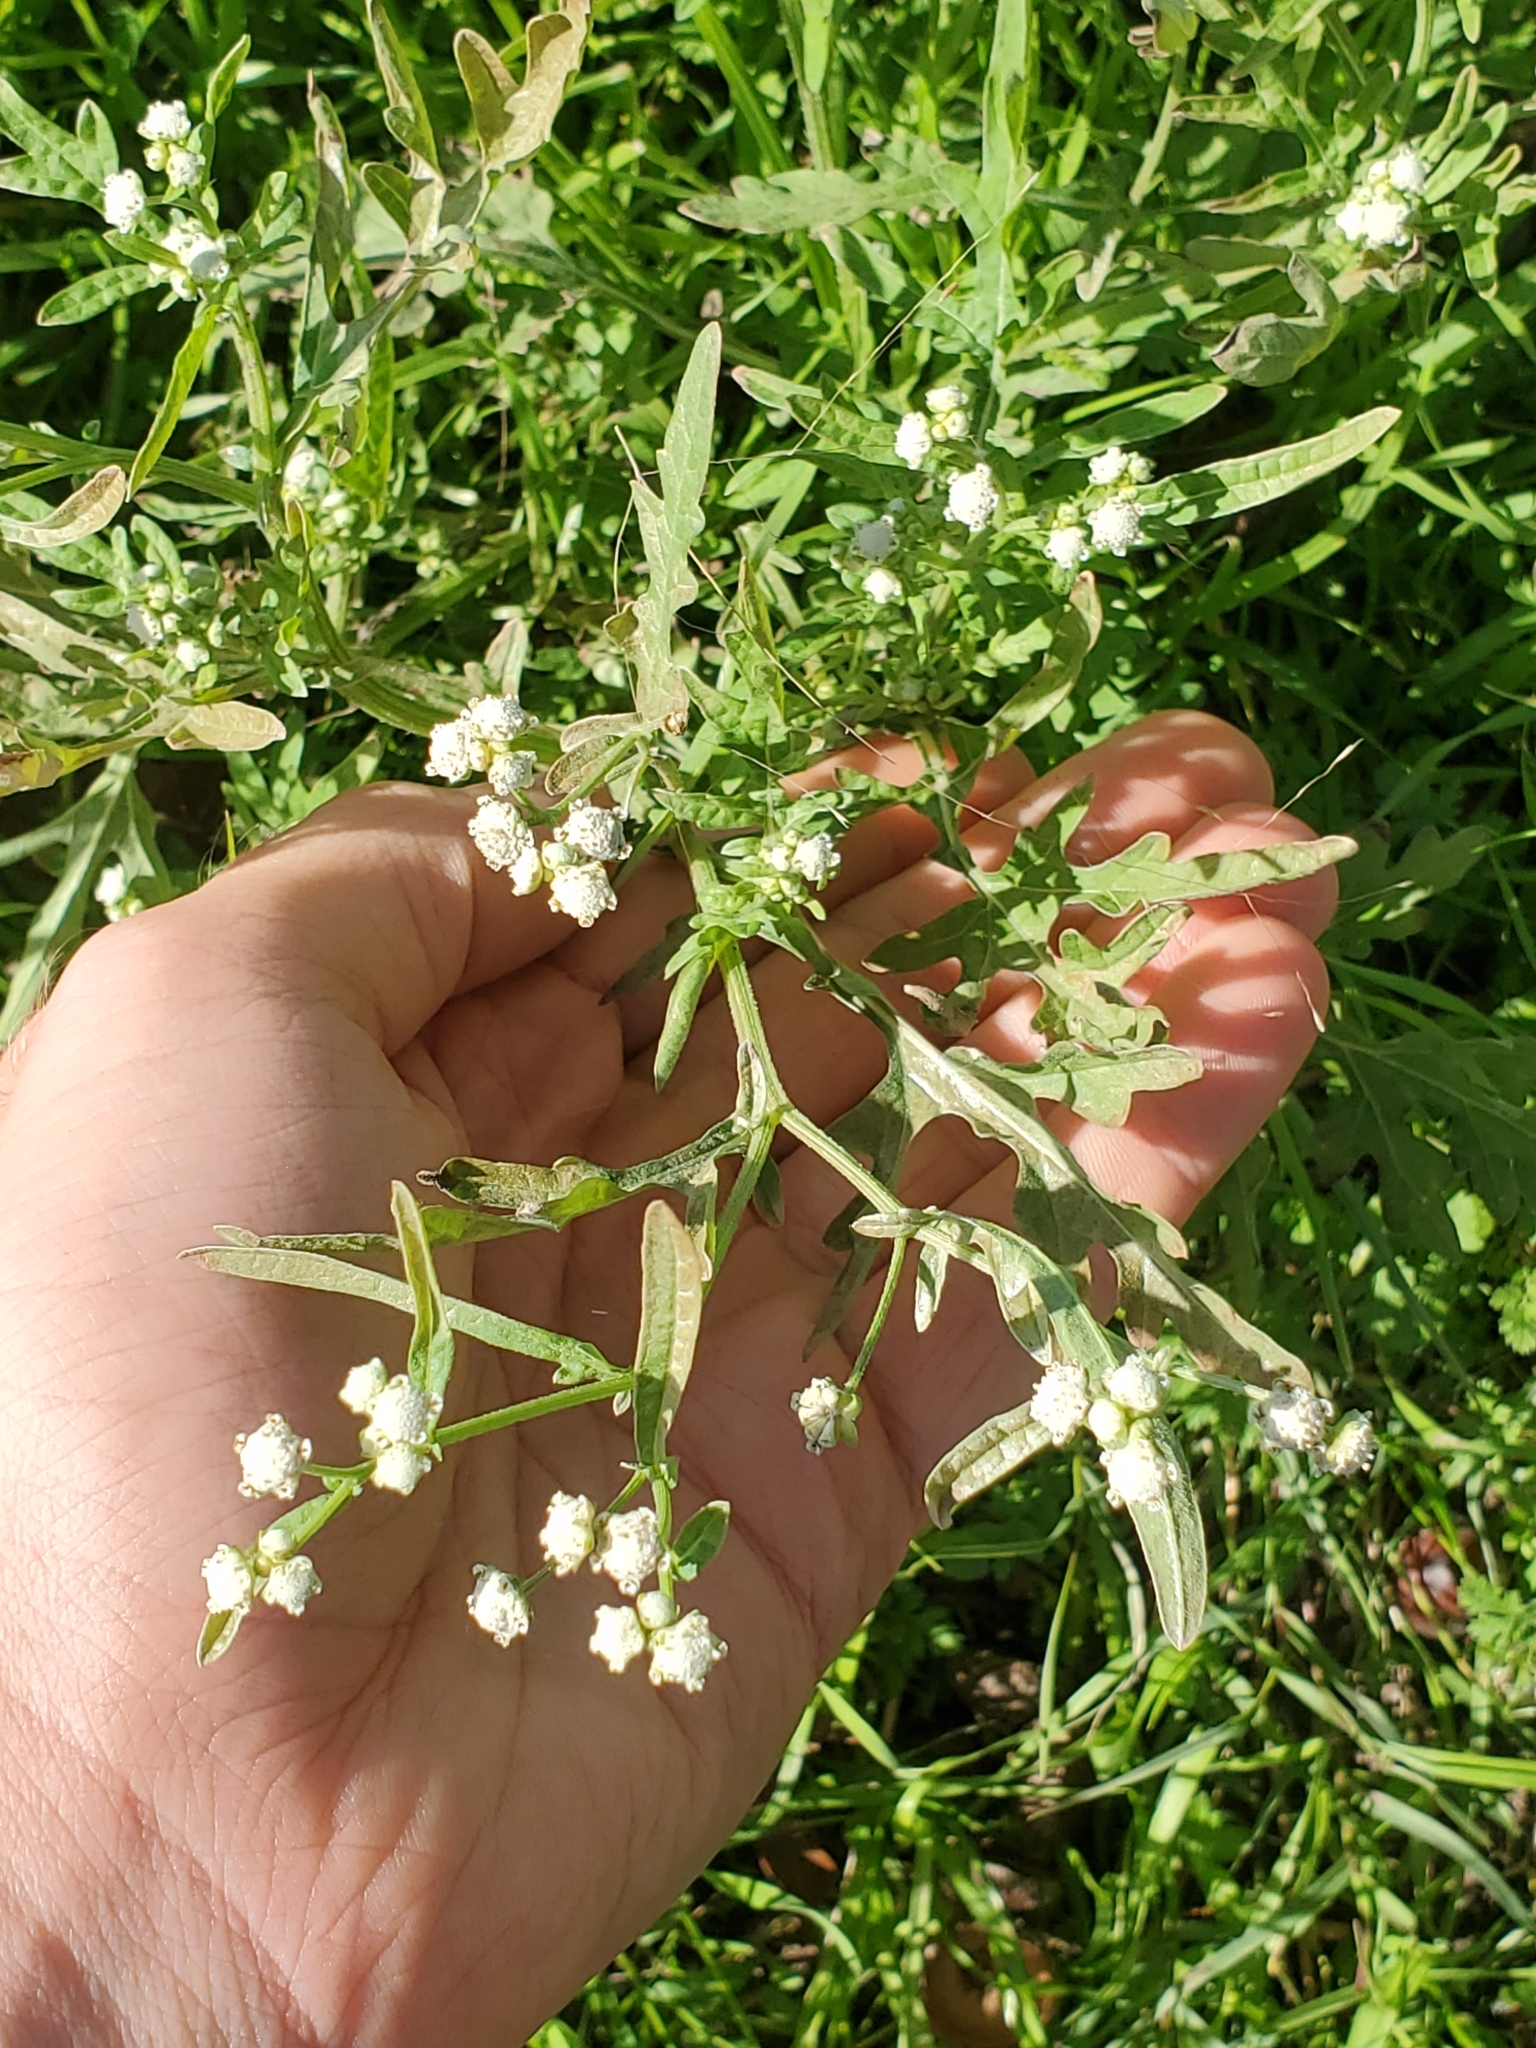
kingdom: Plantae
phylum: Tracheophyta
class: Magnoliopsida
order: Asterales
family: Asteraceae
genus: Parthenium
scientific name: Parthenium hysterophorus
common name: Santa maria feverfew
